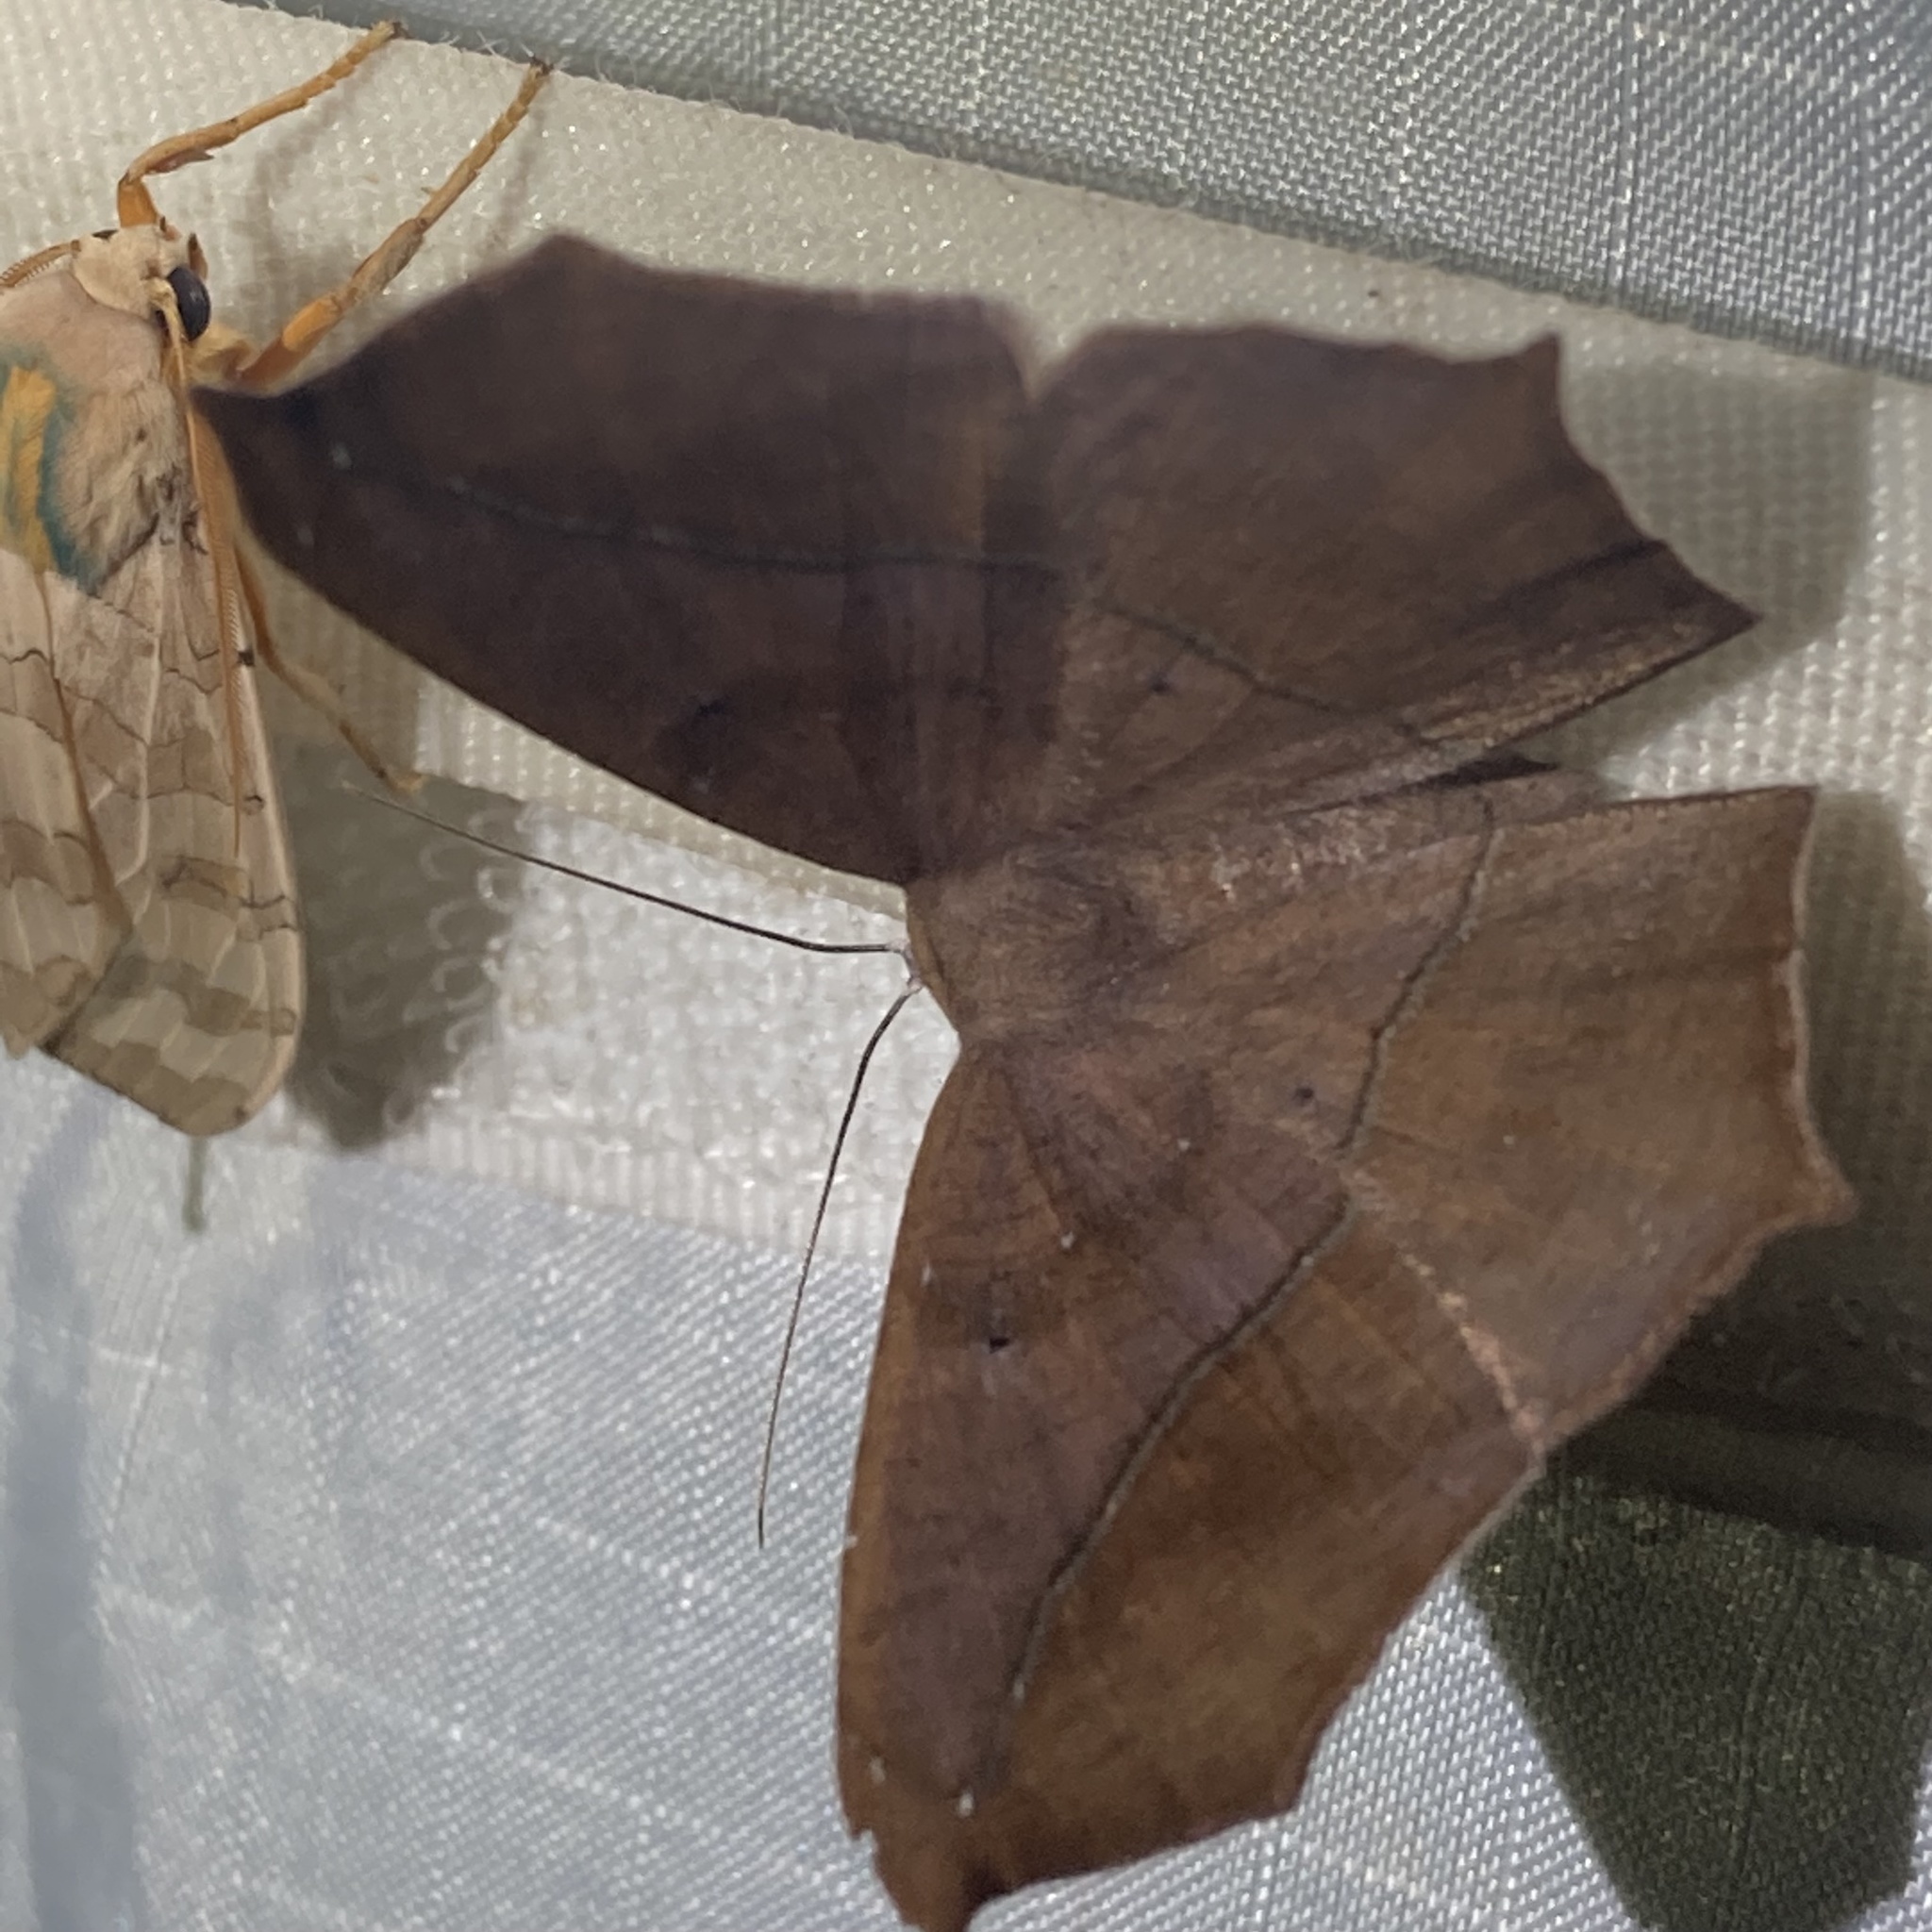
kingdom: Animalia
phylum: Arthropoda
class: Insecta
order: Lepidoptera
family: Geometridae
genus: Prochoerodes
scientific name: Prochoerodes lineola
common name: Large maple spanworm
